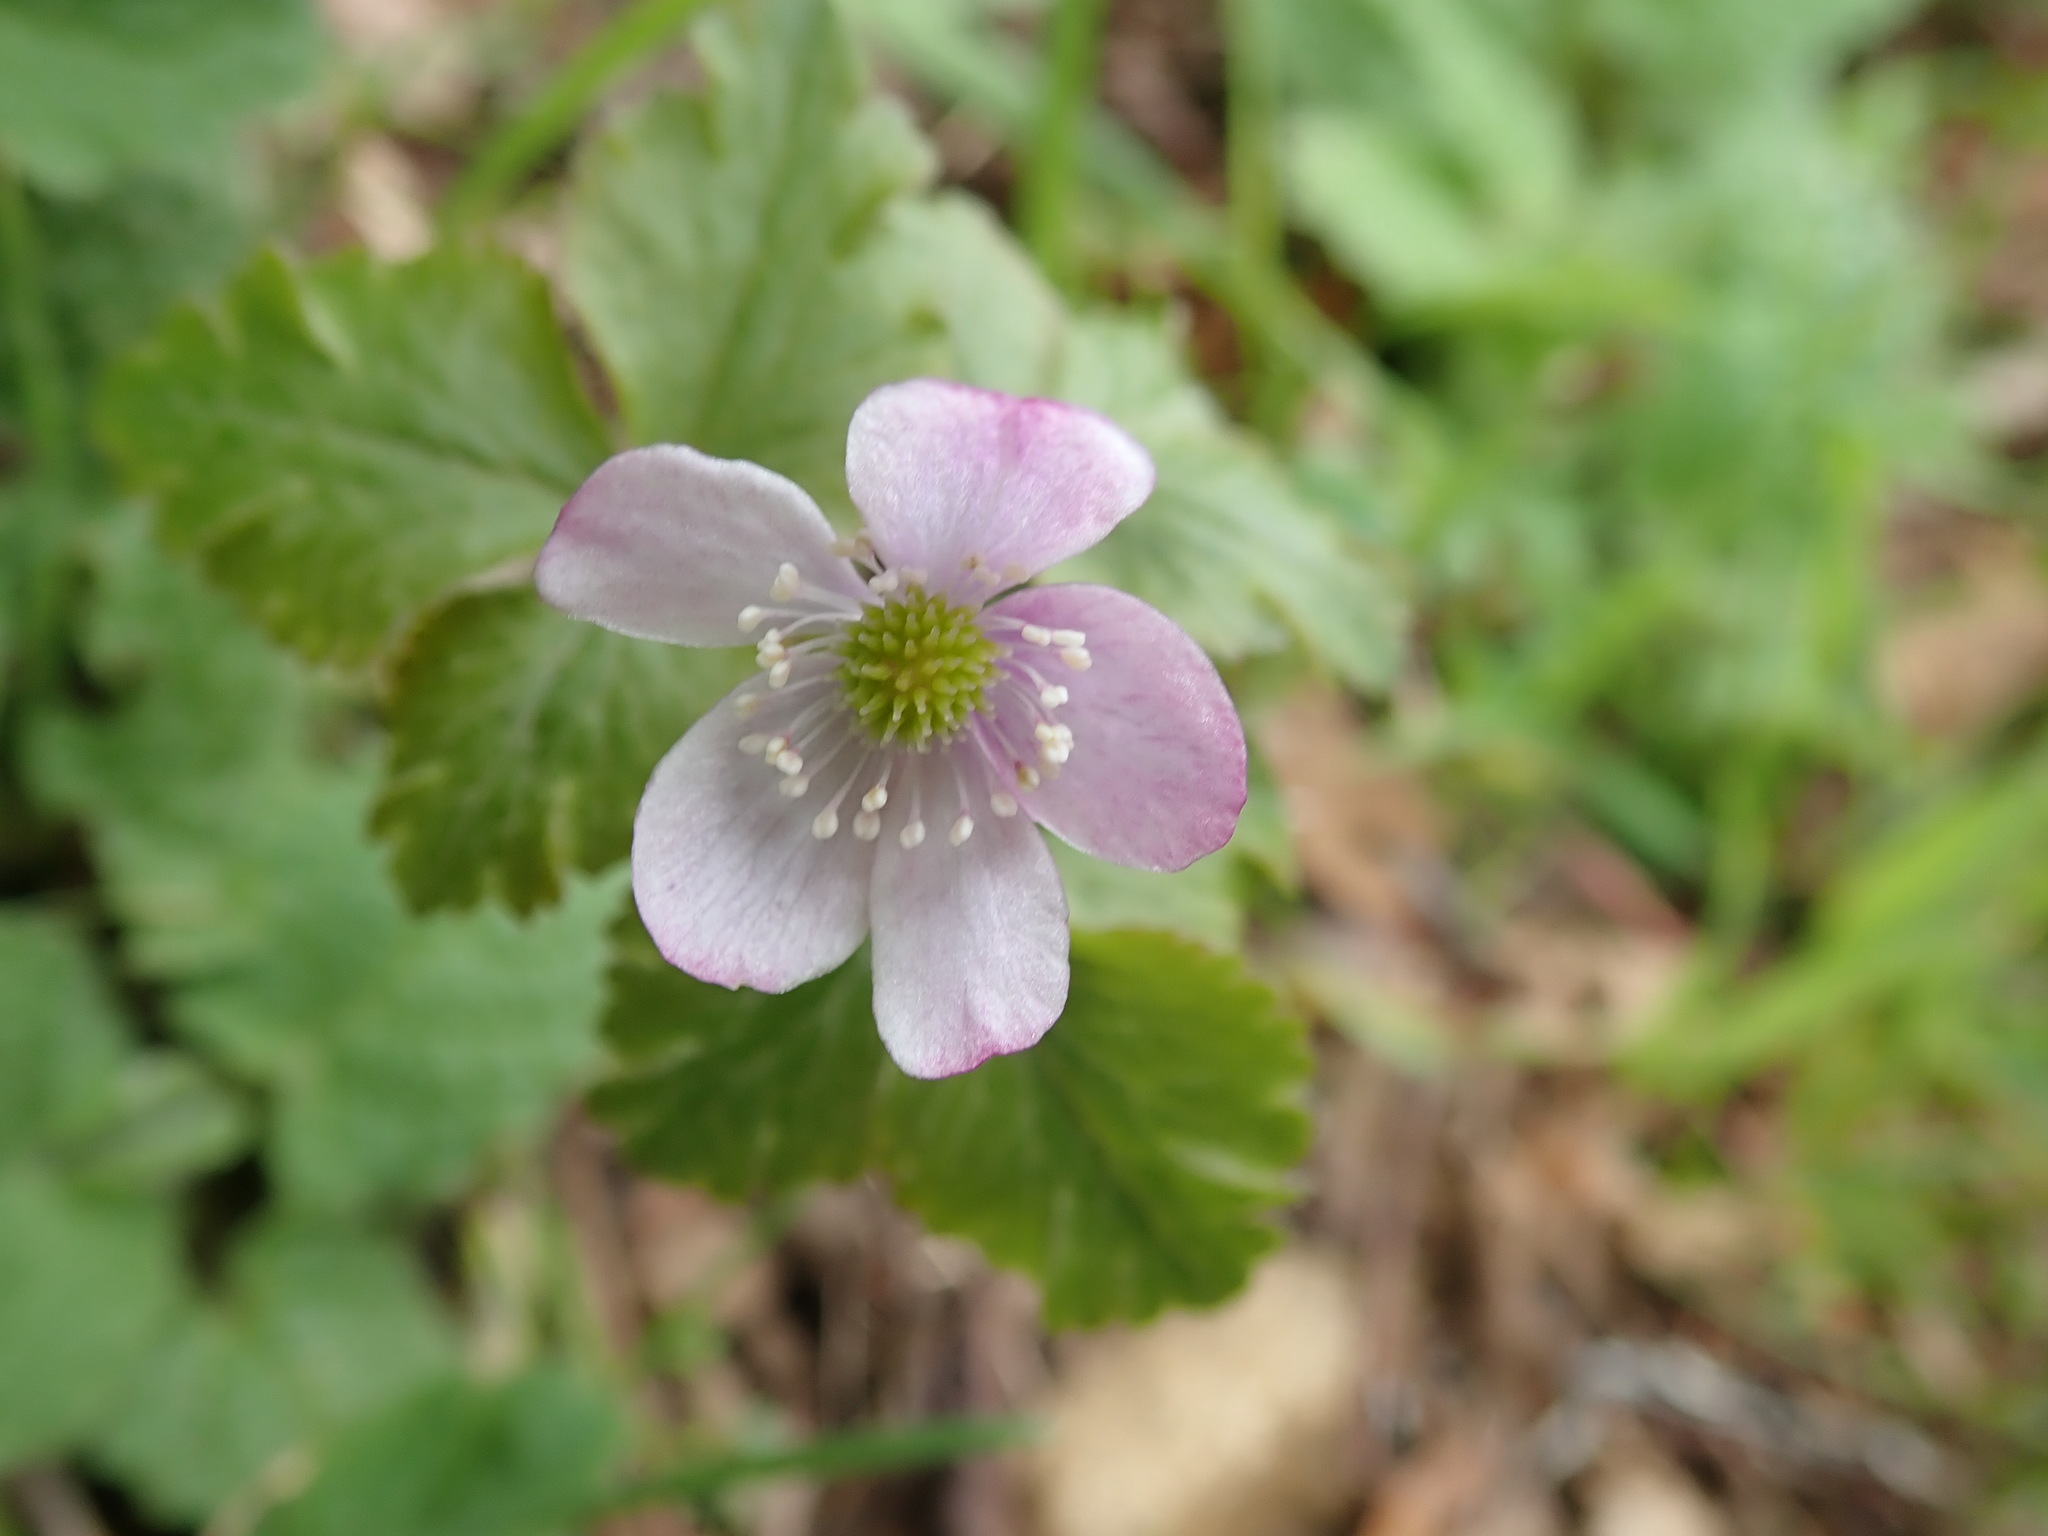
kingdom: Plantae
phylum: Tracheophyta
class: Magnoliopsida
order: Ranunculales
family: Ranunculaceae
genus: Anemone
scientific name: Anemone
